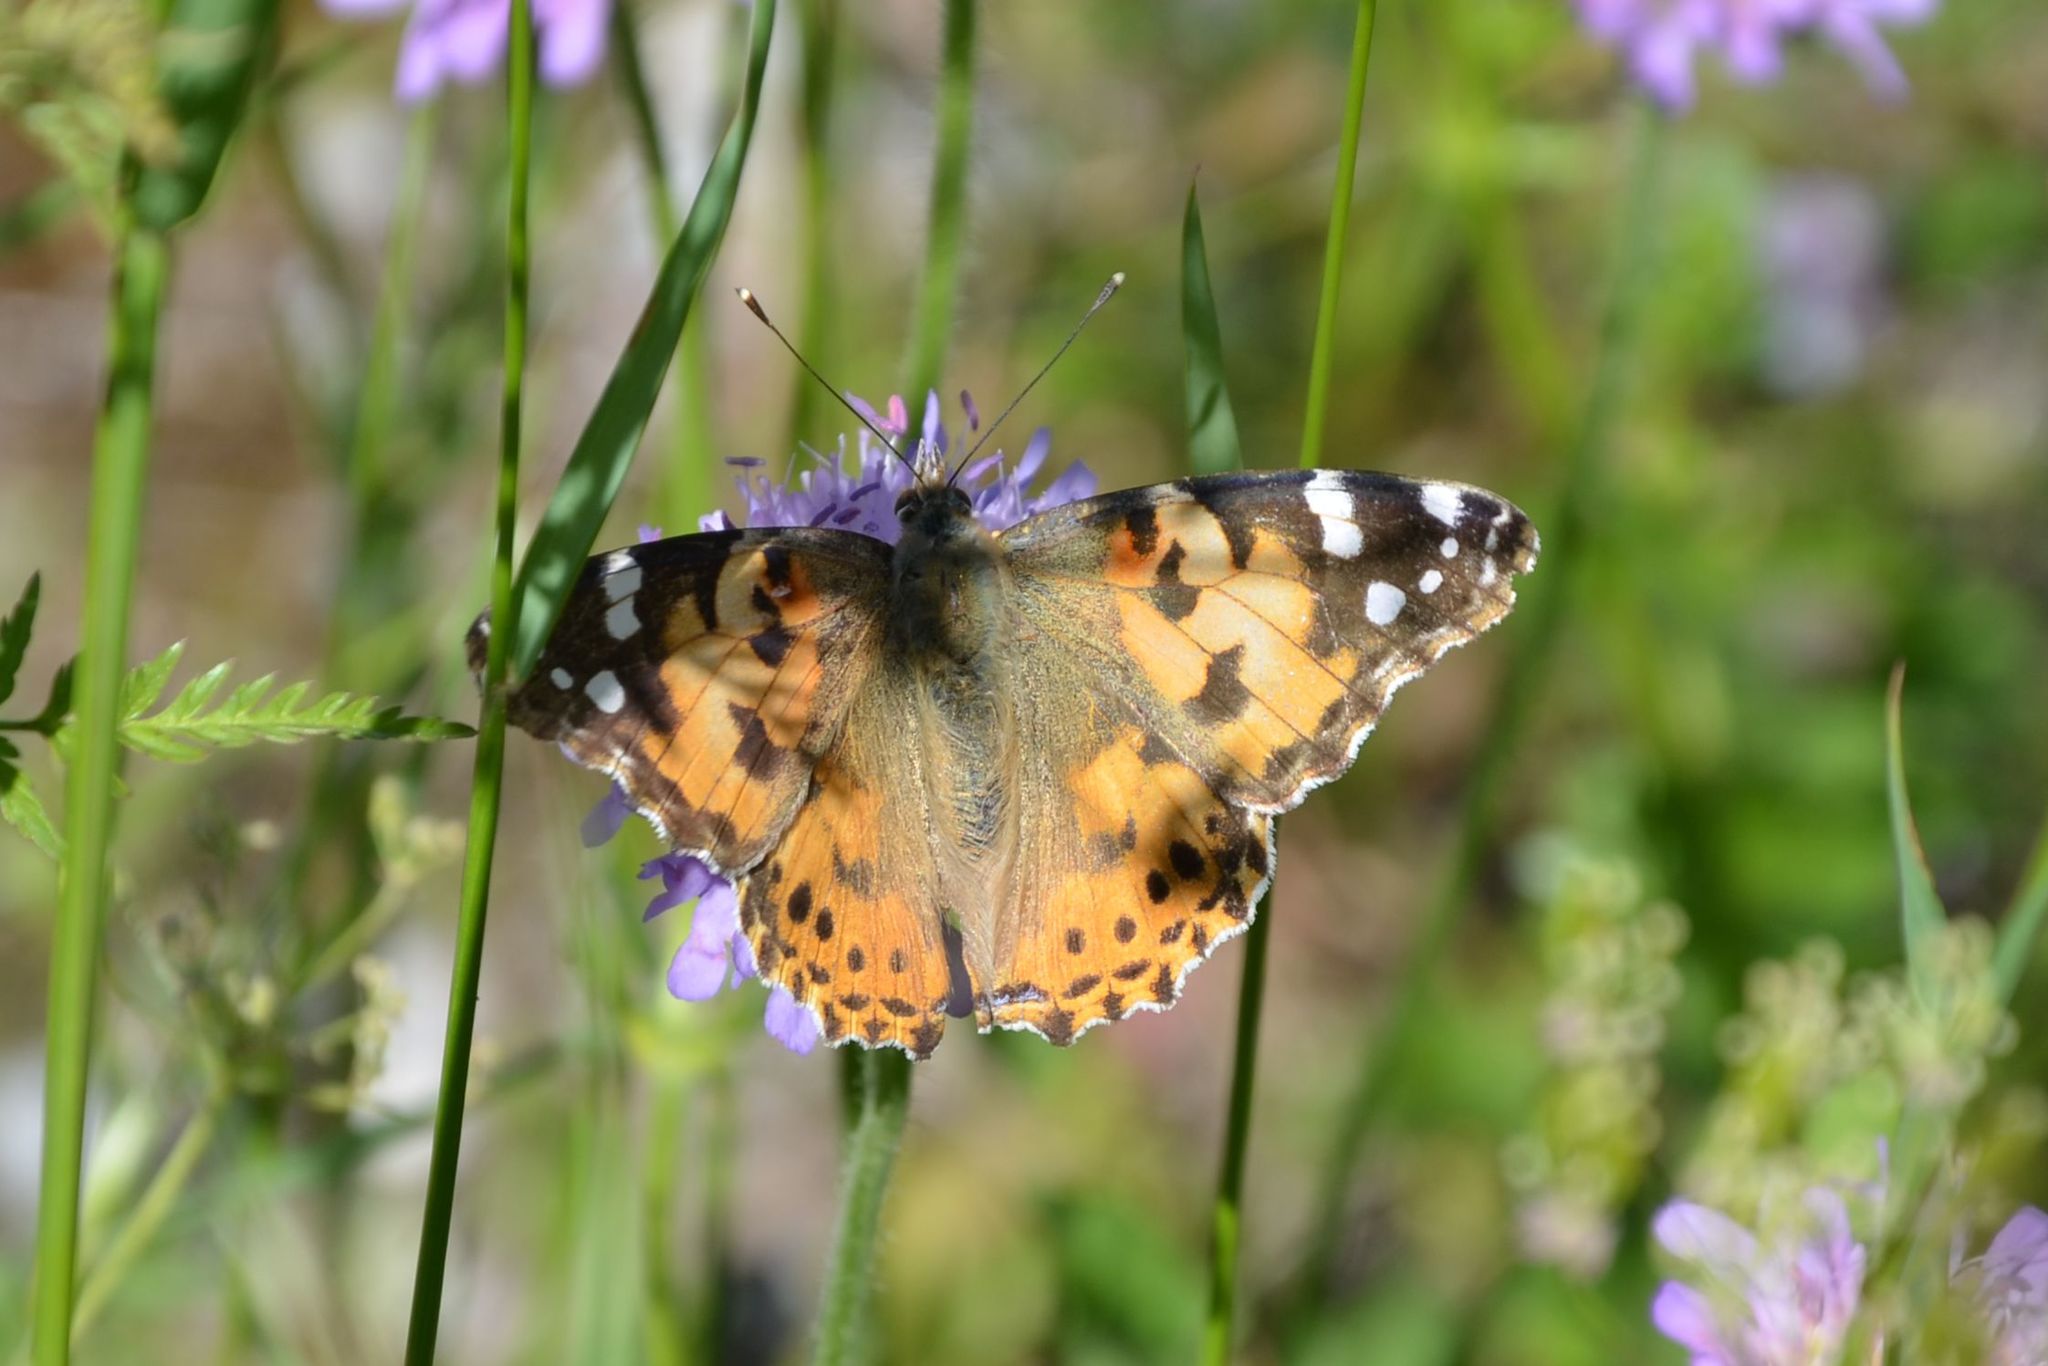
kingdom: Animalia
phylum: Arthropoda
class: Insecta
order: Lepidoptera
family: Nymphalidae
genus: Vanessa
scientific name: Vanessa cardui
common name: Painted lady
